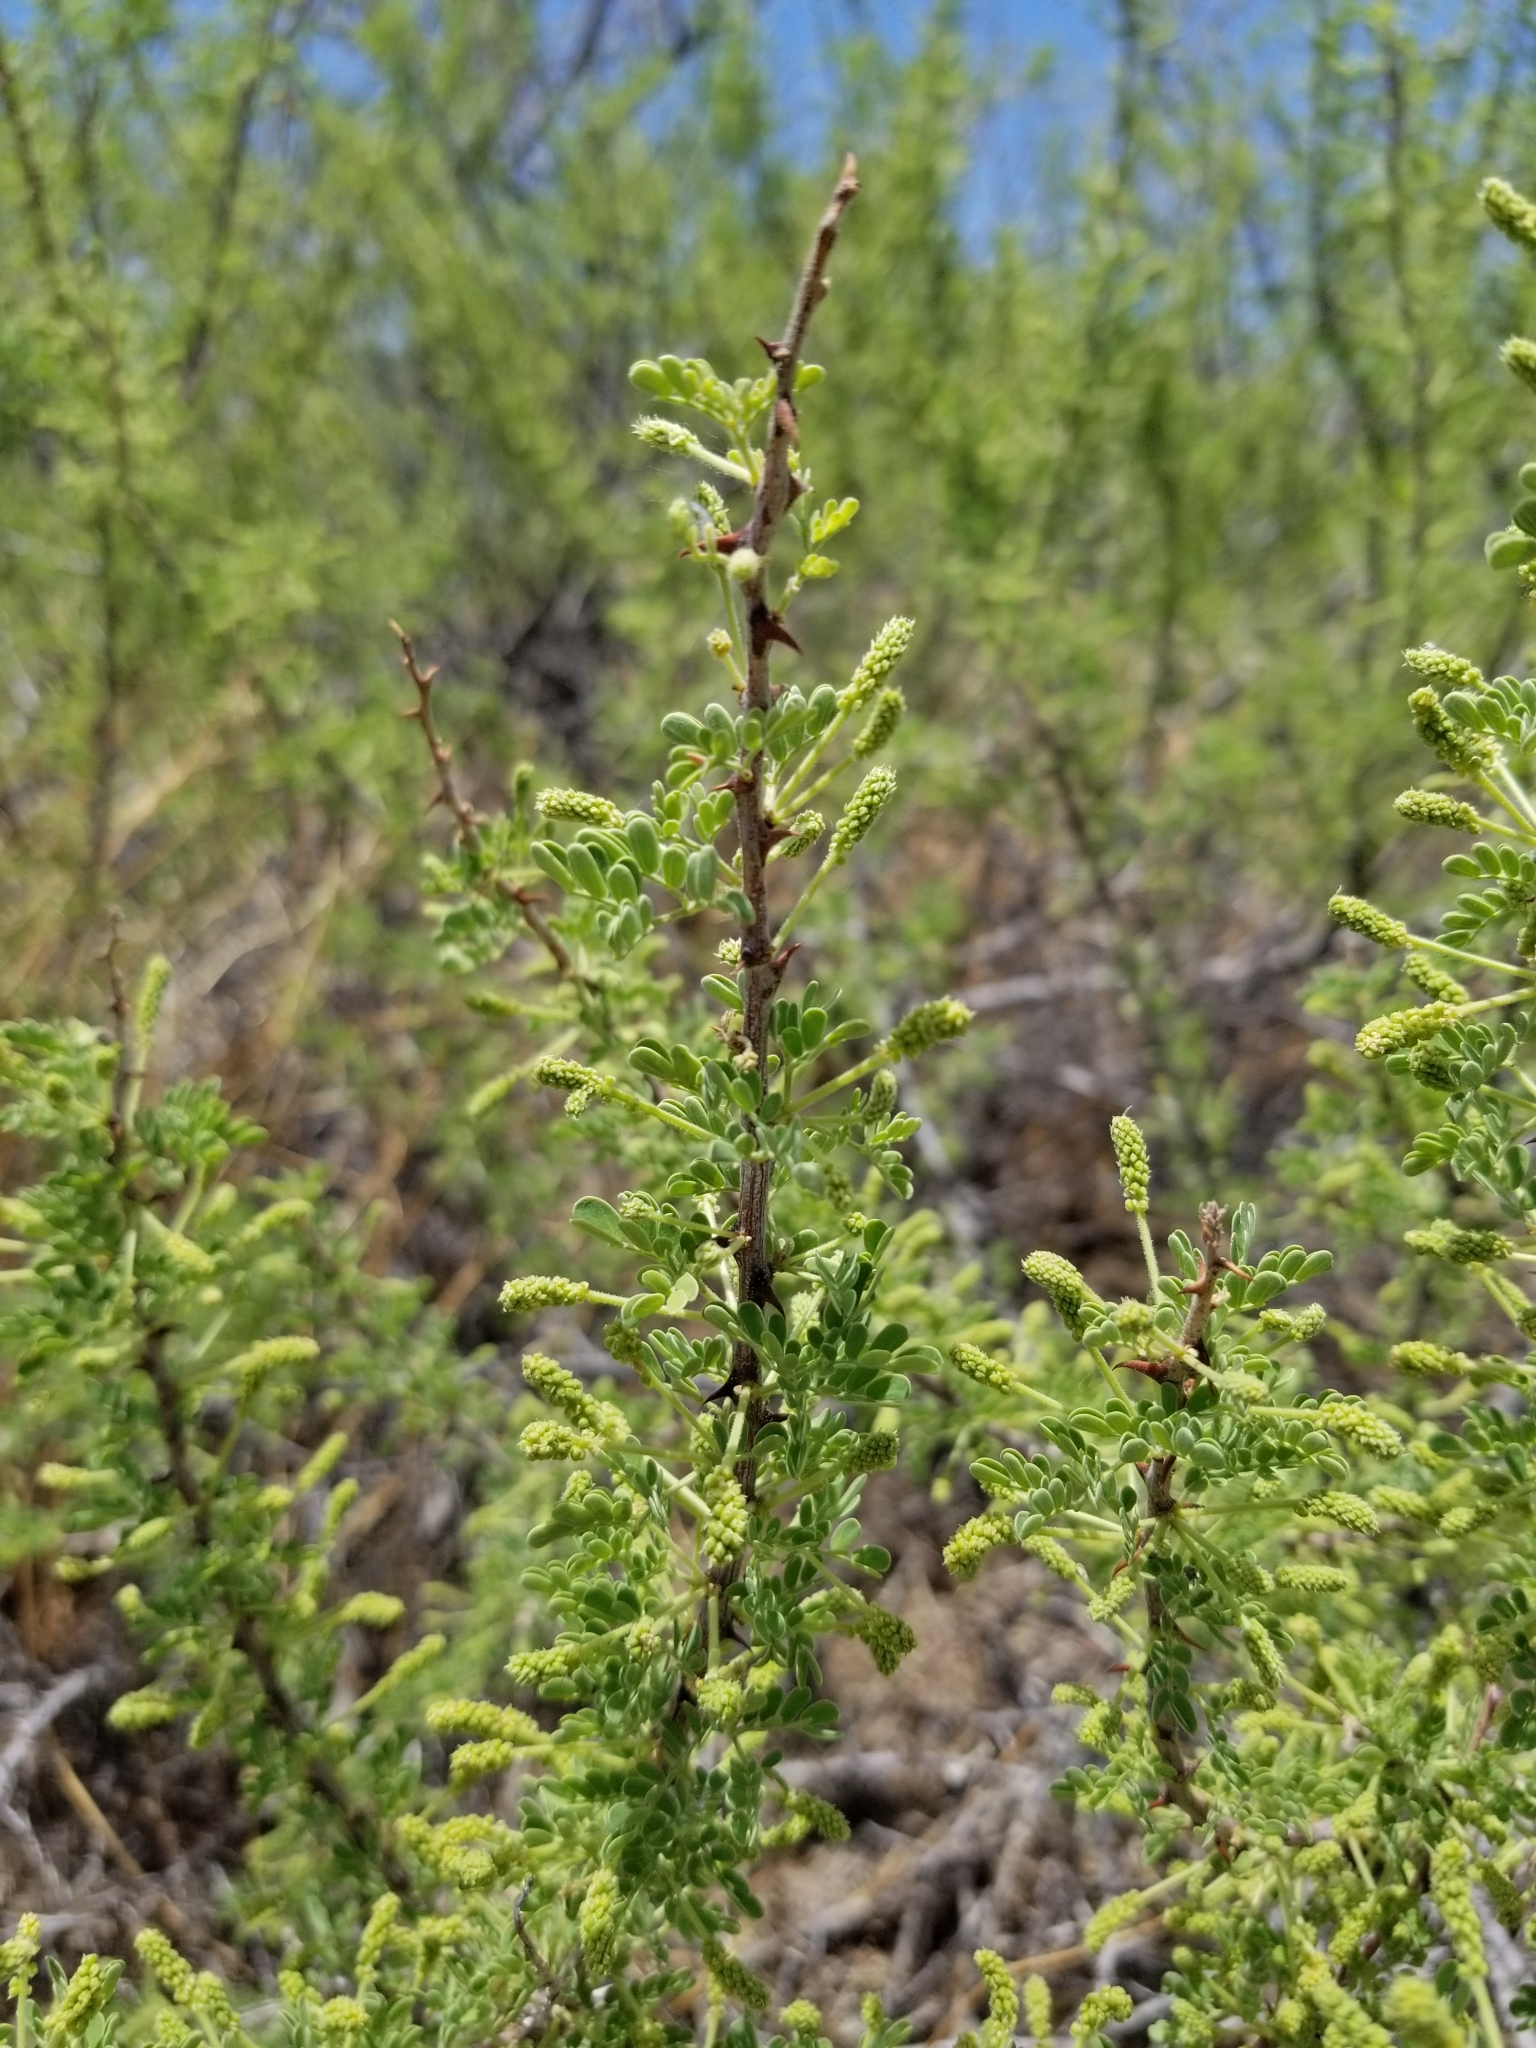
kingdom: Plantae
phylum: Tracheophyta
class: Magnoliopsida
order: Fabales
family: Fabaceae
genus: Senegalia
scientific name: Senegalia greggii
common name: Texas-mimosa
